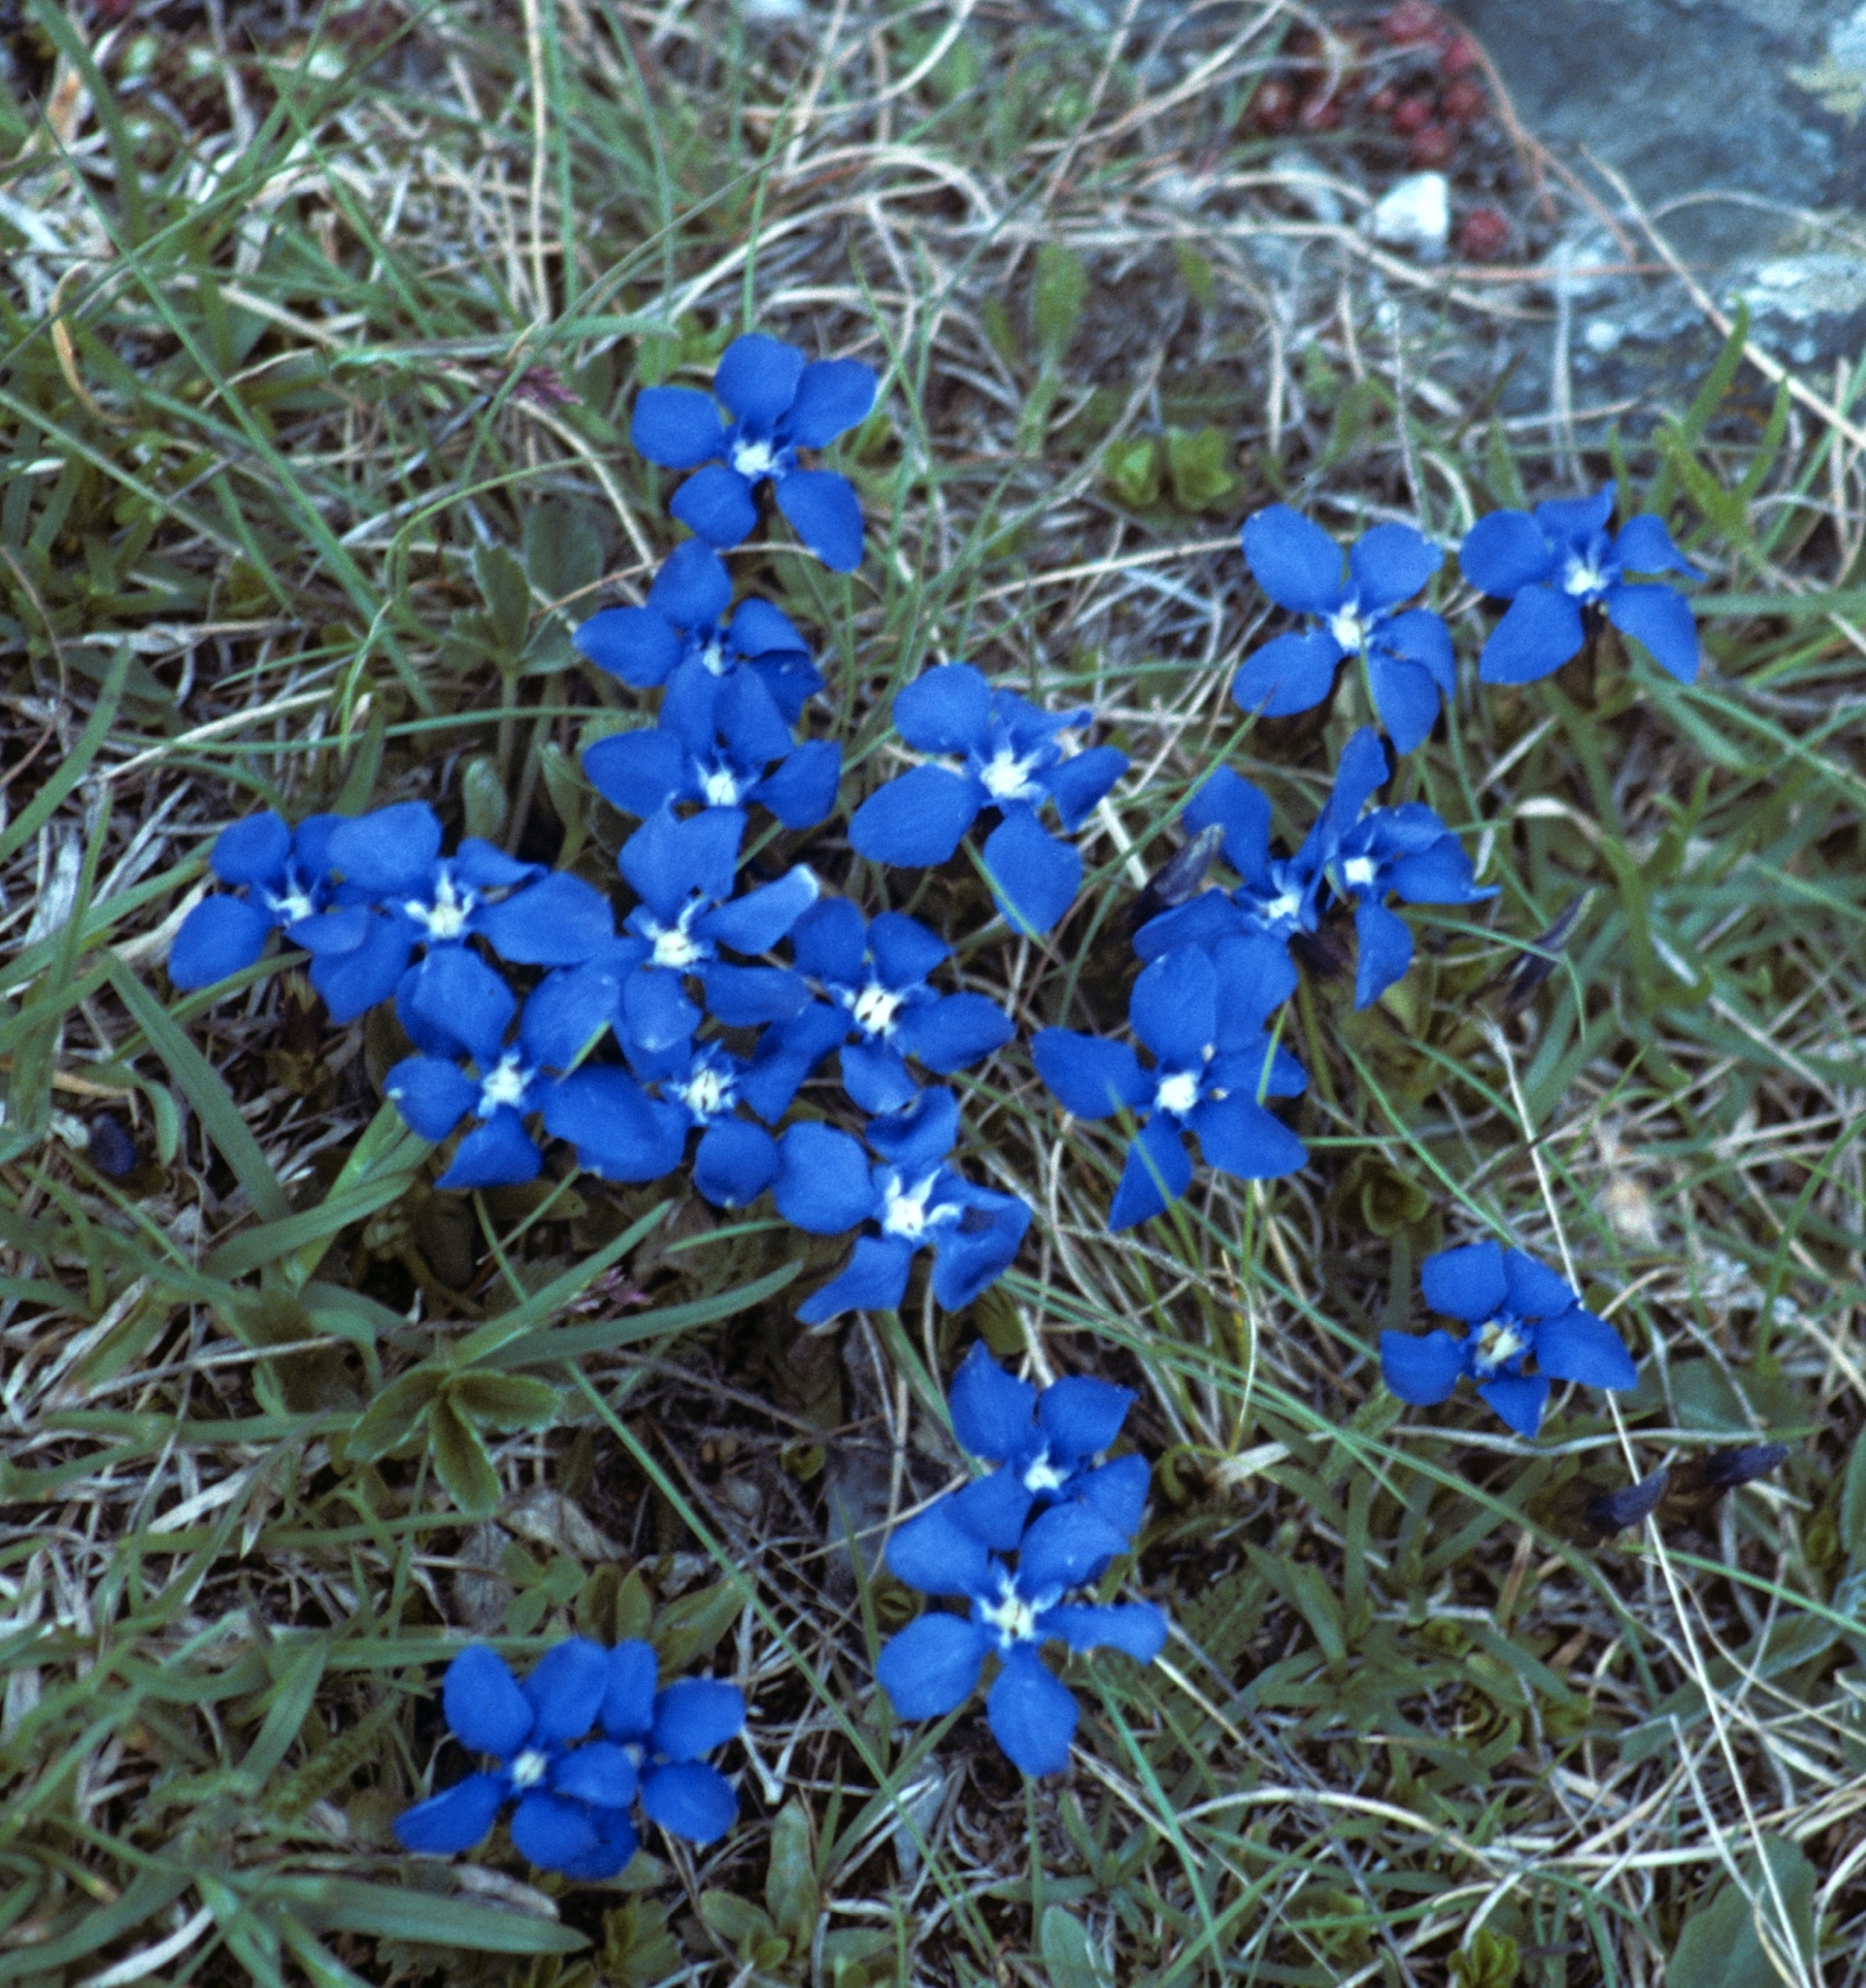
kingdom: Plantae
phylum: Tracheophyta
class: Magnoliopsida
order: Gentianales
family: Gentianaceae
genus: Gentiana
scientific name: Gentiana verna
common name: Spring gentian
